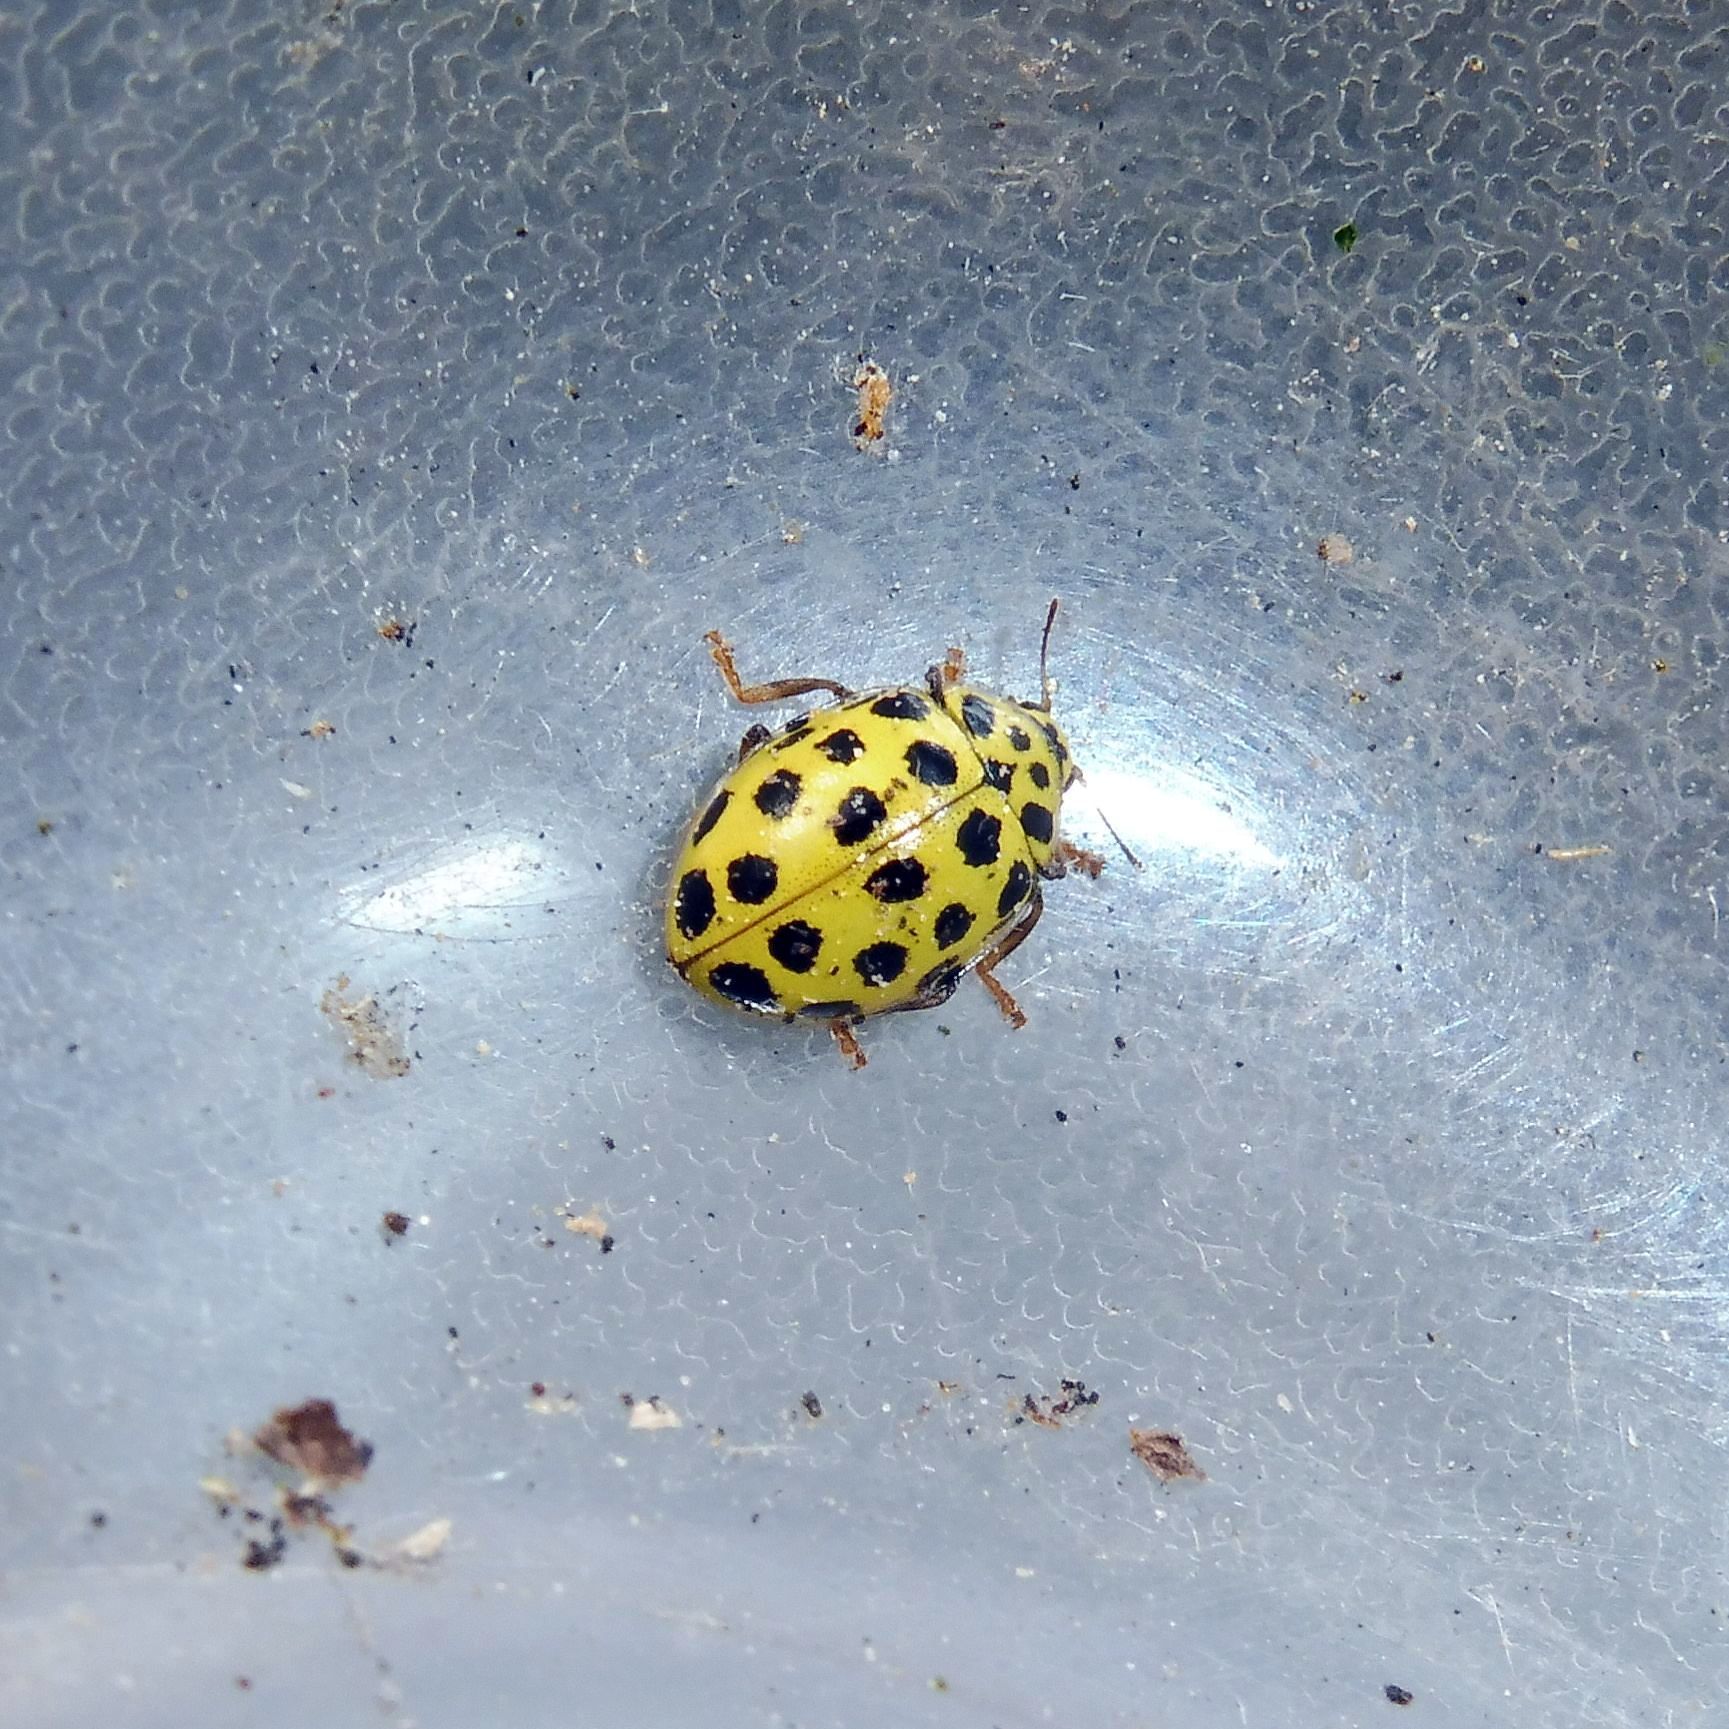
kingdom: Animalia
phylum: Arthropoda
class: Insecta
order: Coleoptera
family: Coccinellidae
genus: Psyllobora
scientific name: Psyllobora vigintiduopunctata
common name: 22-spot ladybird
